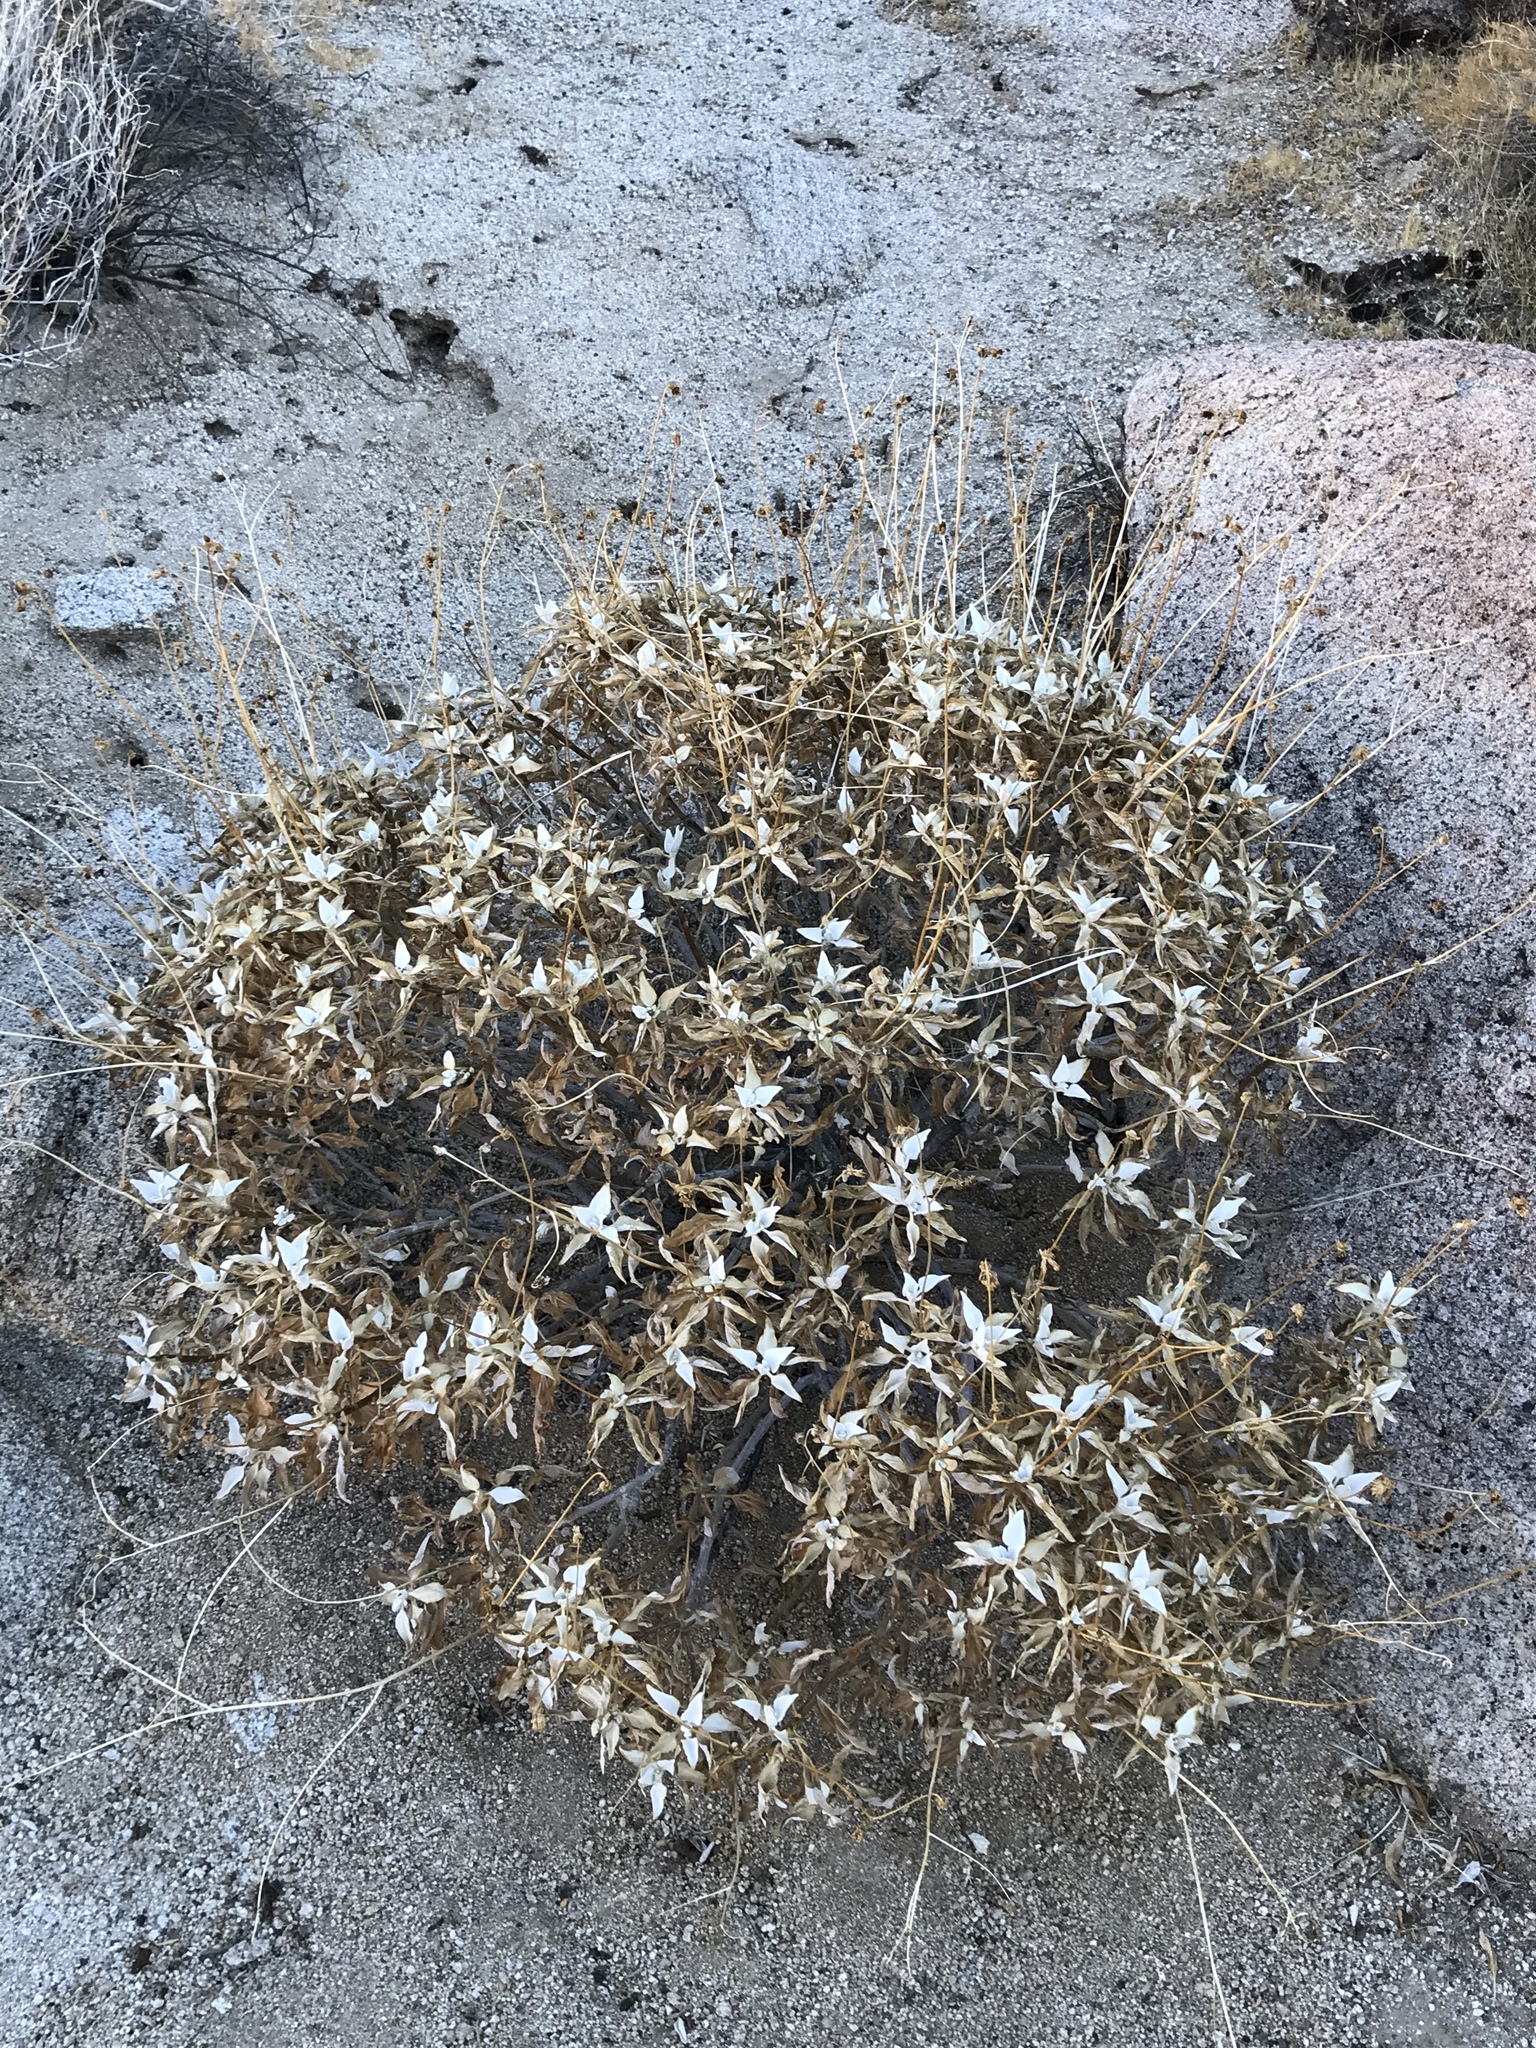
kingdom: Plantae
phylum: Tracheophyta
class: Magnoliopsida
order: Asterales
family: Asteraceae
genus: Encelia
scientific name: Encelia farinosa
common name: Brittlebush
